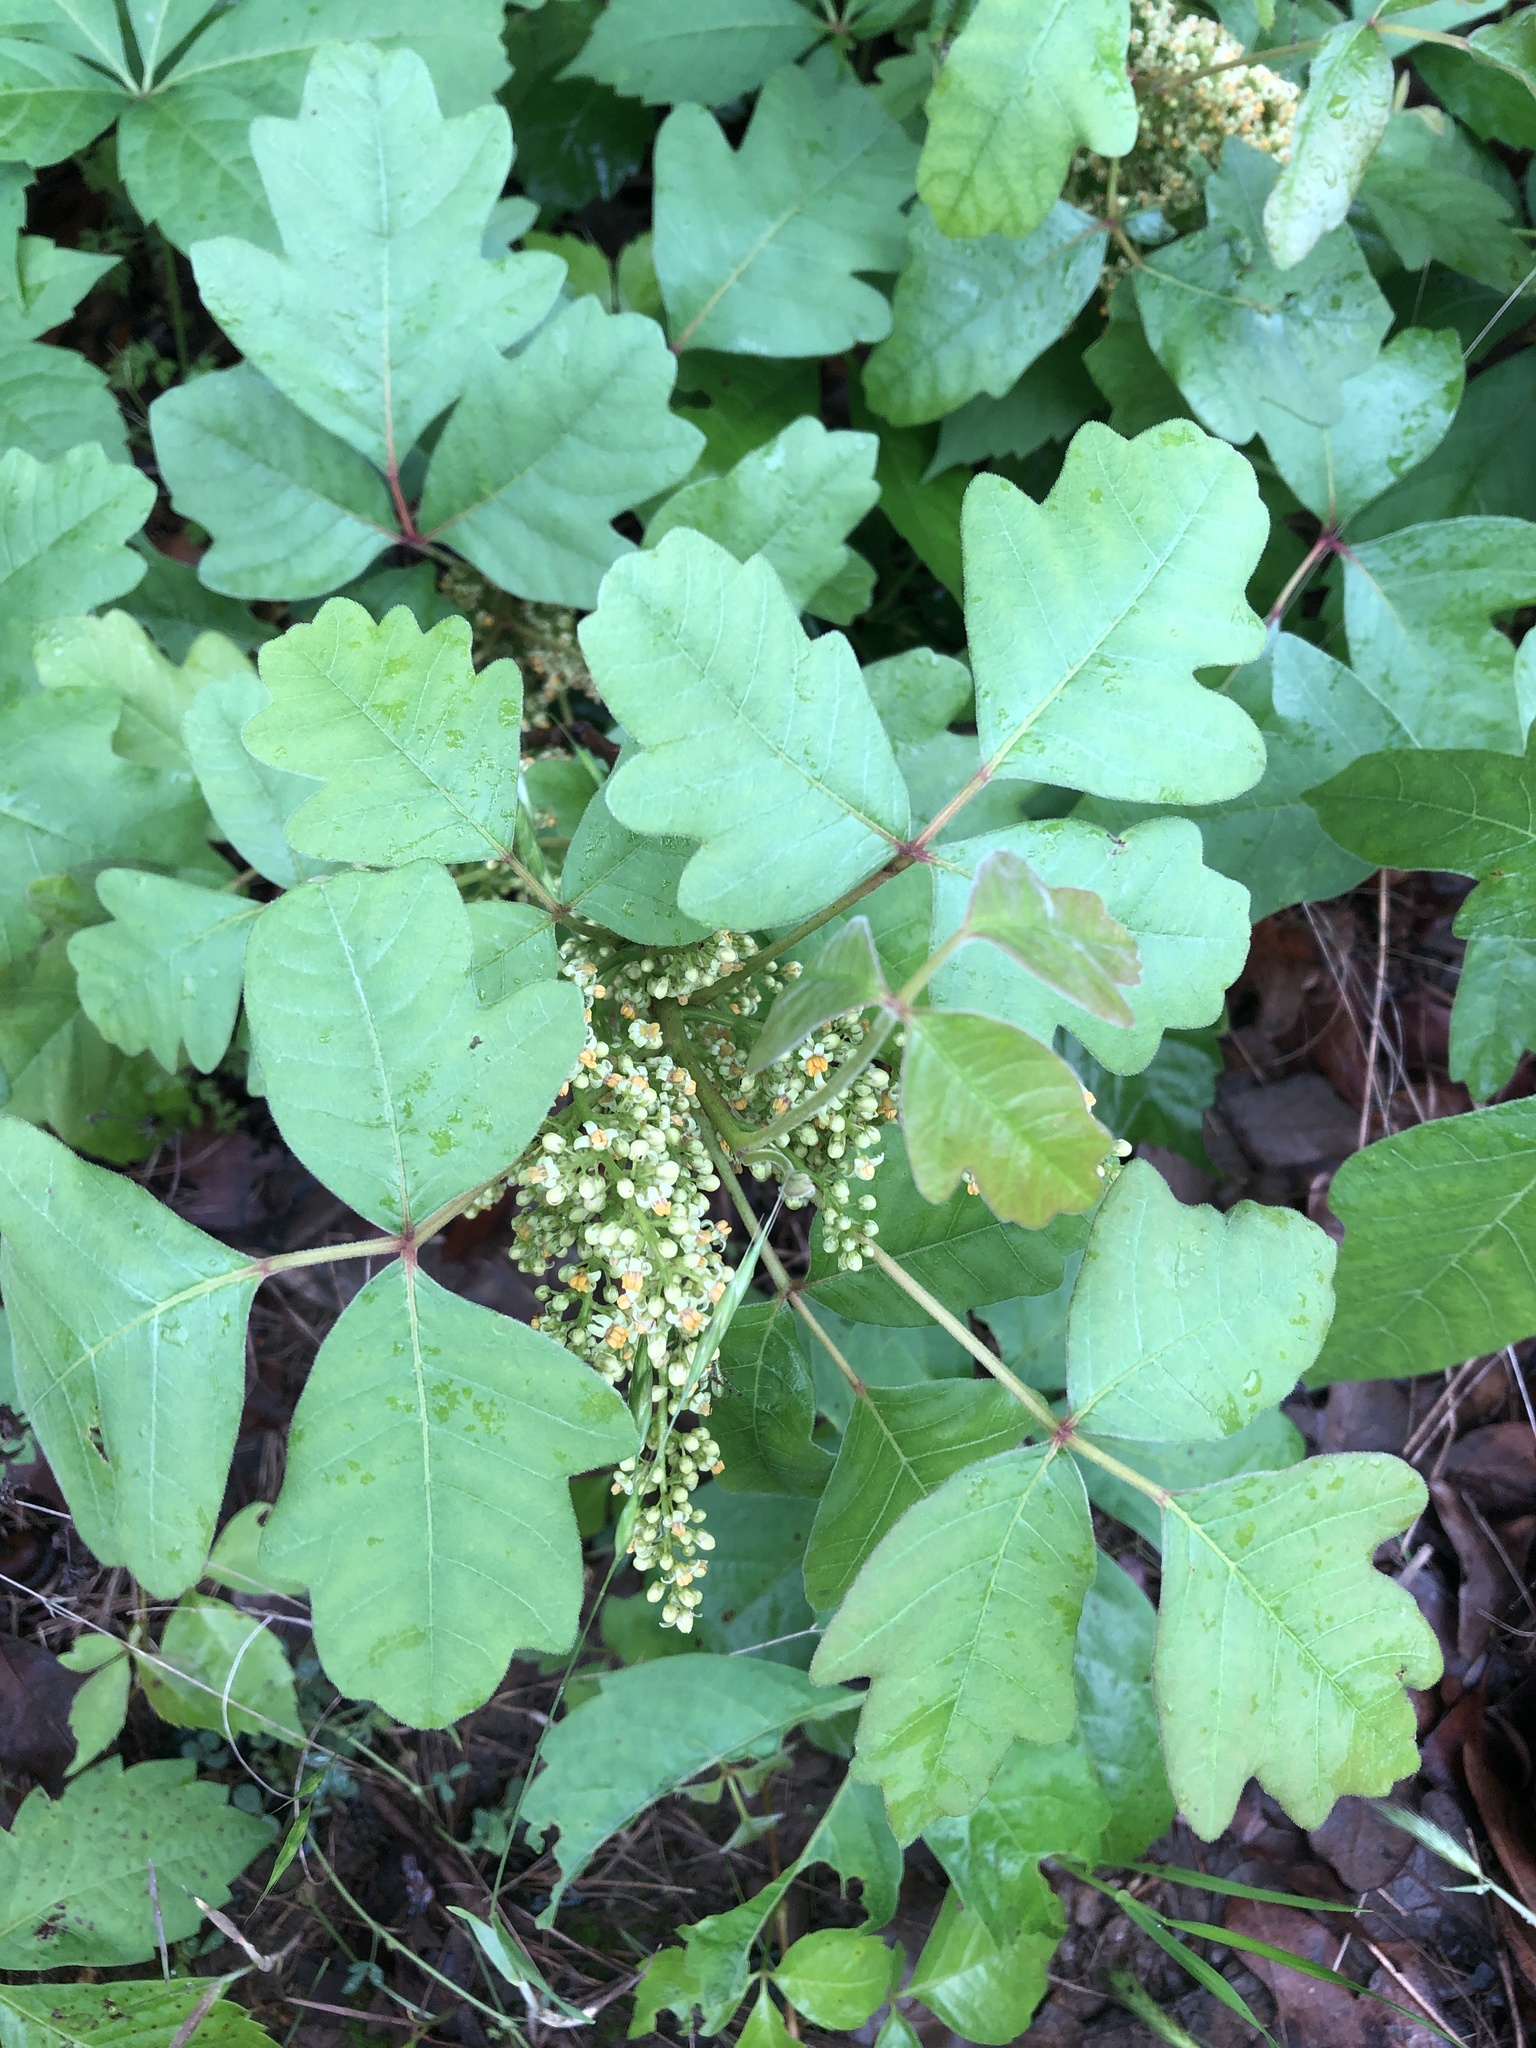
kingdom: Plantae
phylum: Tracheophyta
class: Magnoliopsida
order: Sapindales
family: Anacardiaceae
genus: Toxicodendron
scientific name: Toxicodendron pubescens
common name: Eastern poison-oak
